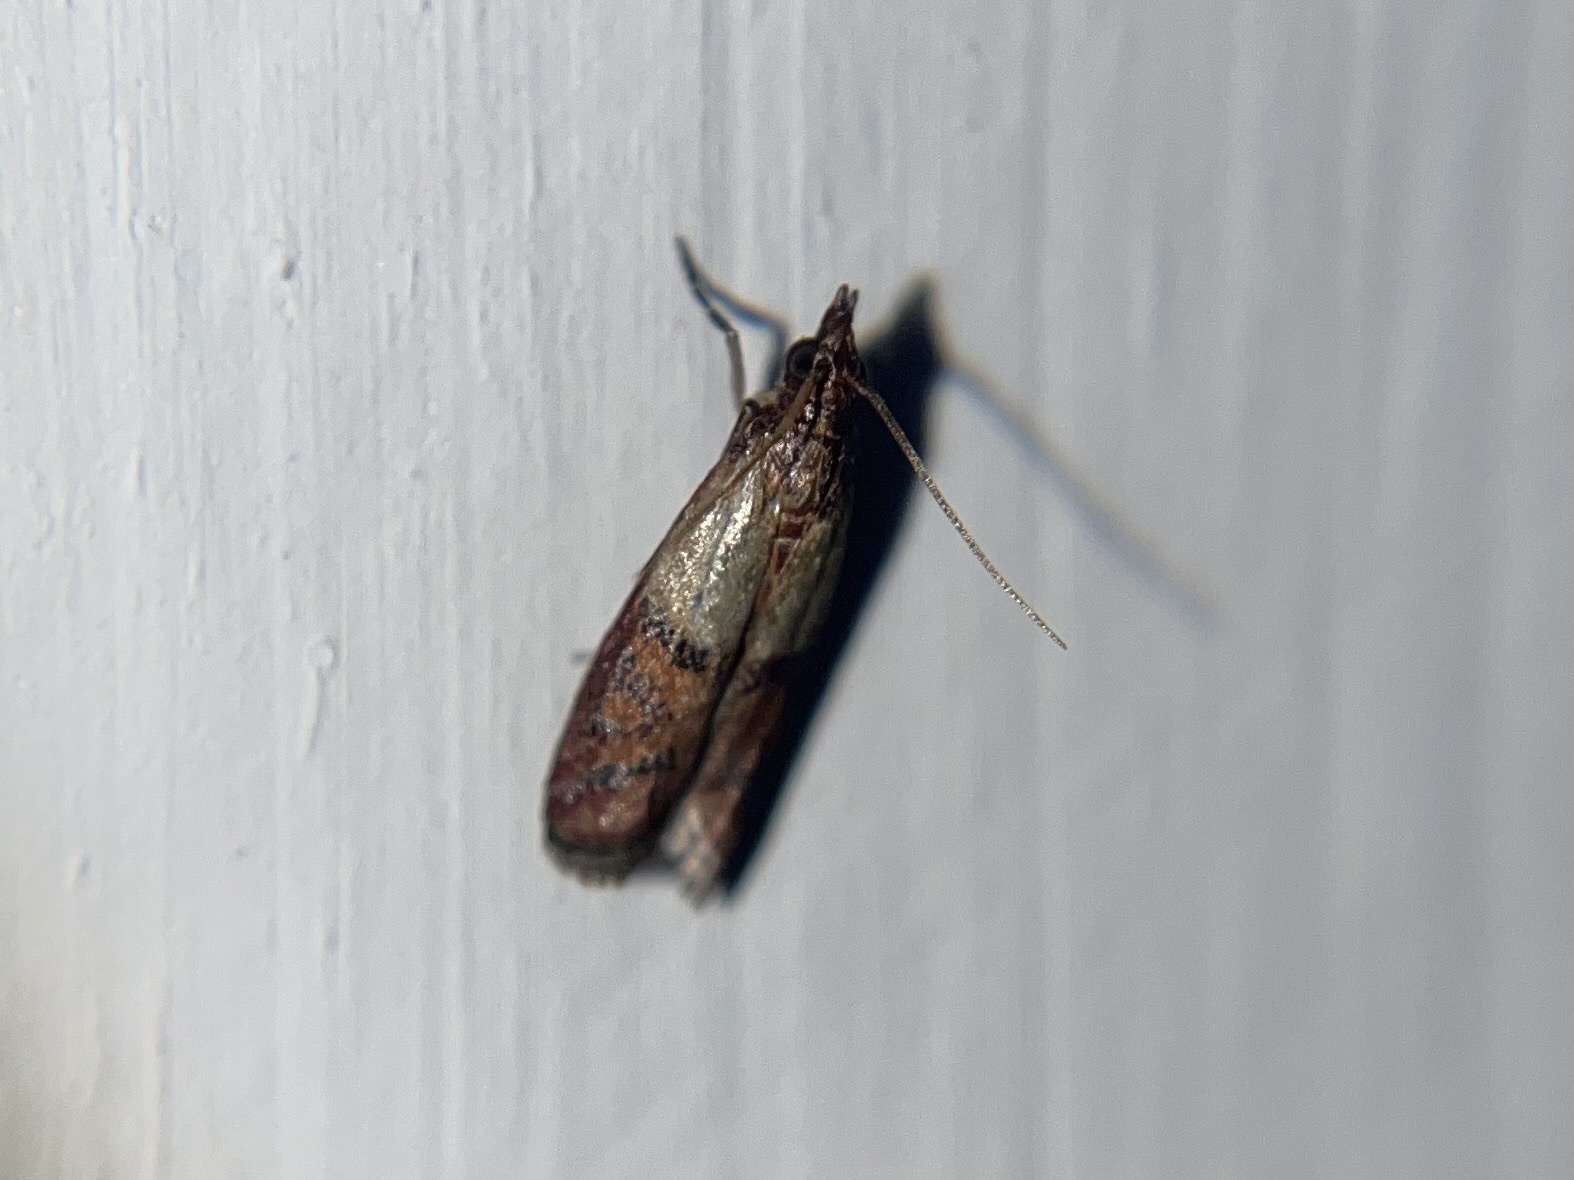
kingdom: Animalia
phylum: Arthropoda
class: Insecta
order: Lepidoptera
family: Pyralidae
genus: Plodia
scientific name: Plodia interpunctella
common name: Indian meal moth
